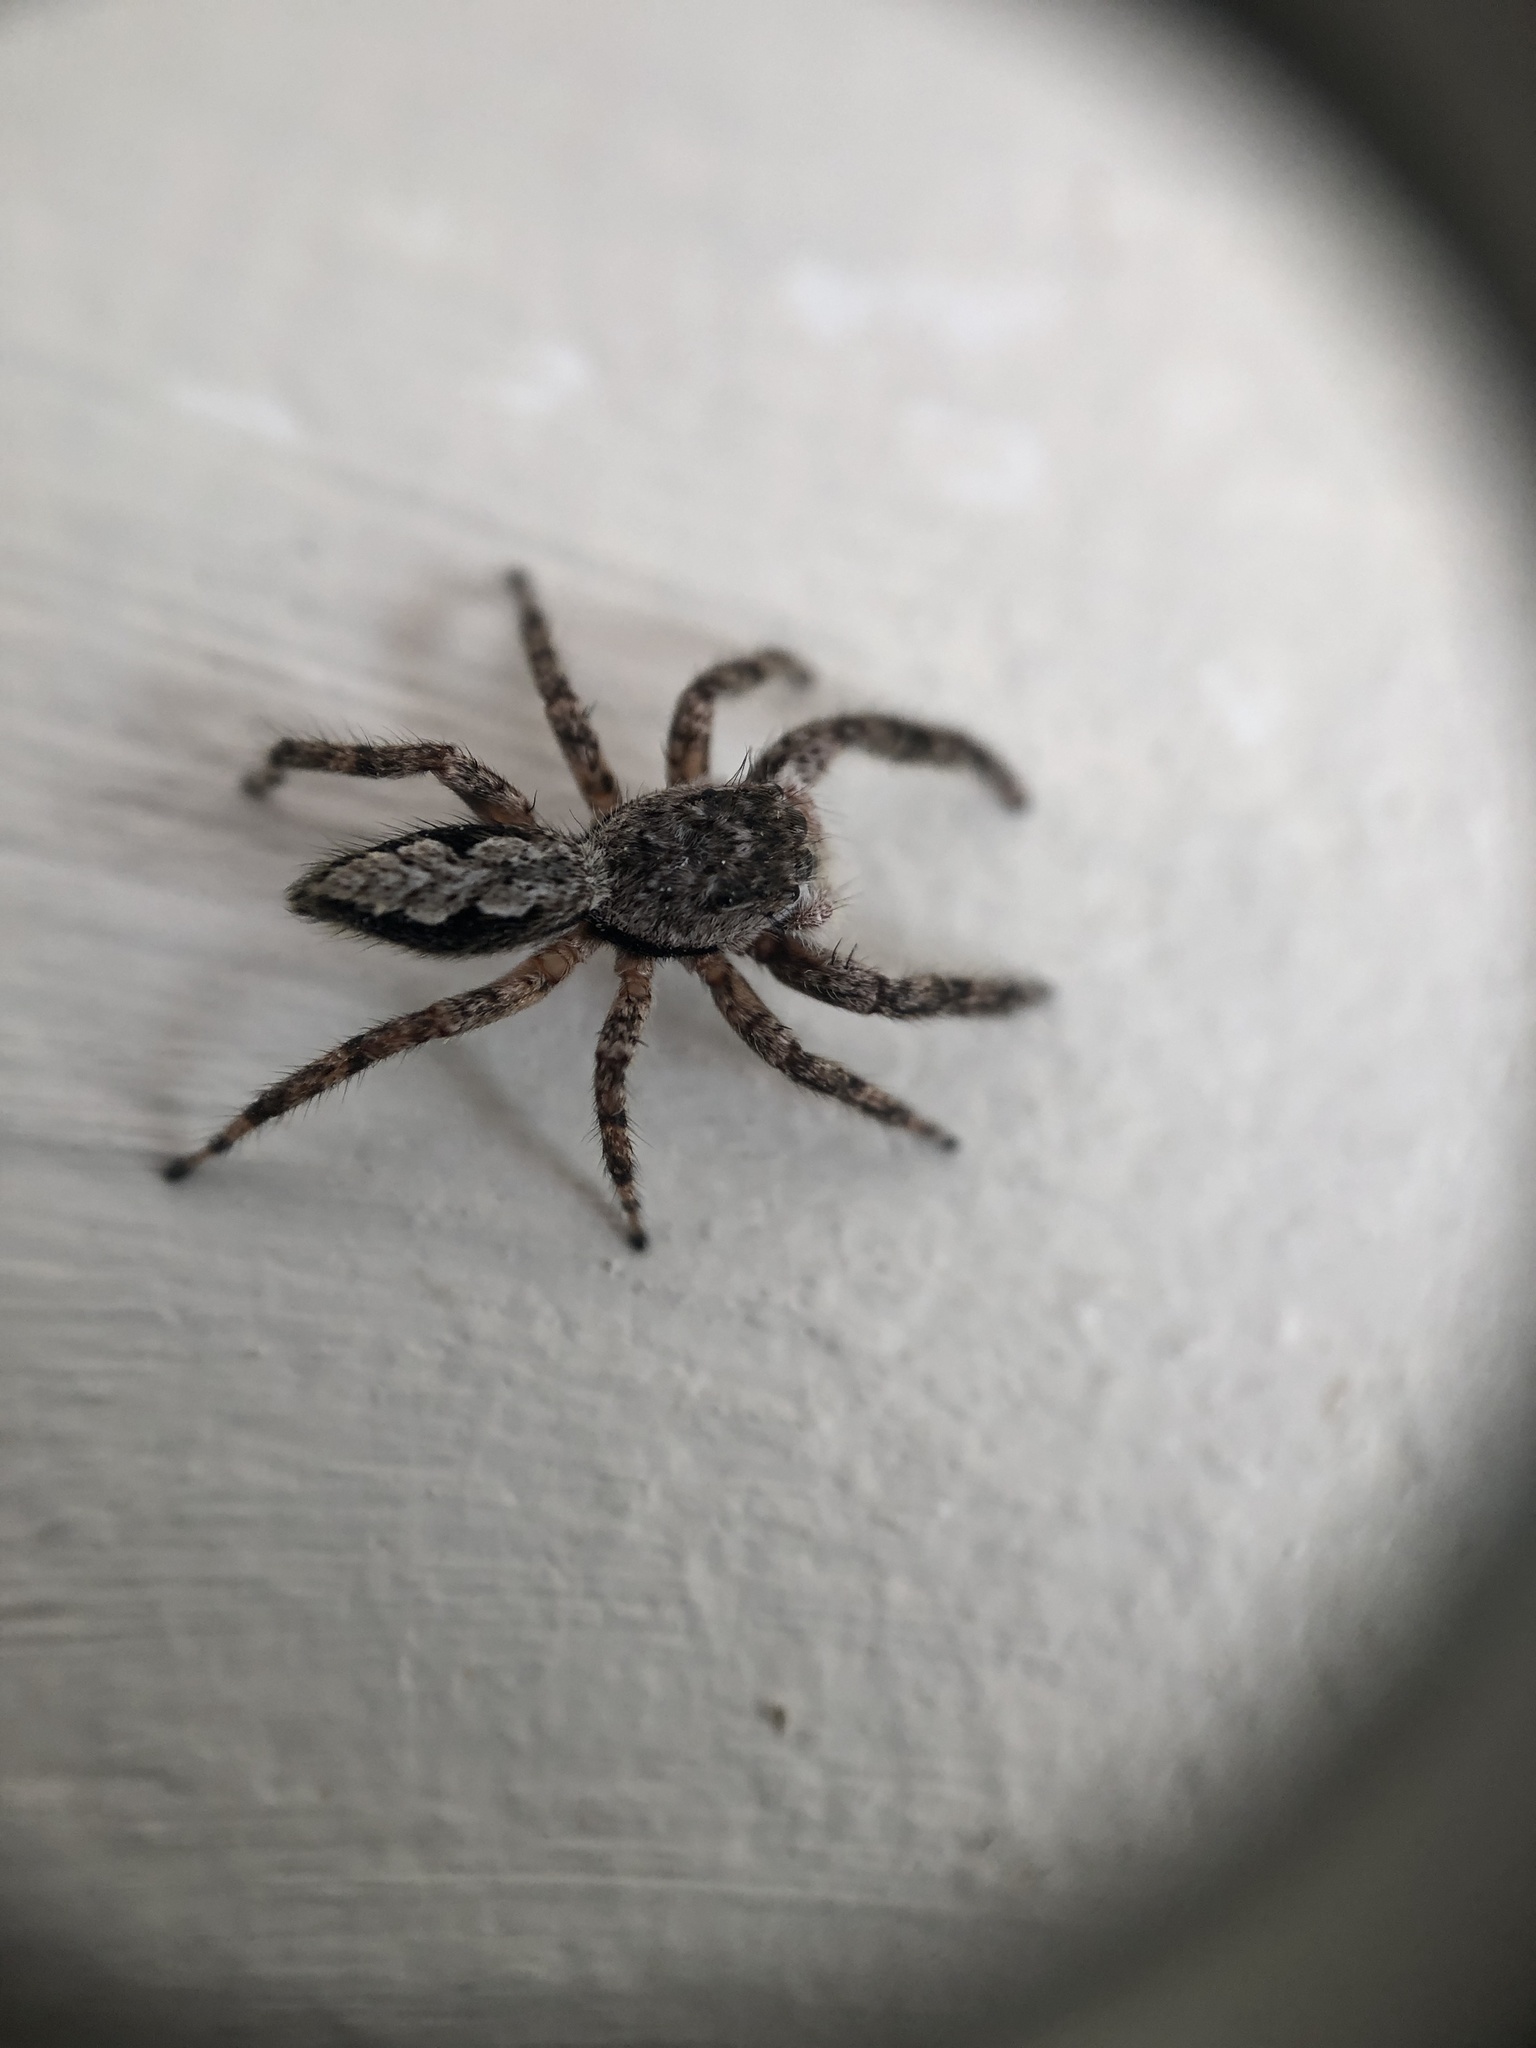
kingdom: Animalia
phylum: Arthropoda
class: Arachnida
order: Araneae
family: Salticidae
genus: Platycryptus
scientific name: Platycryptus undatus
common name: Tan jumping spider
